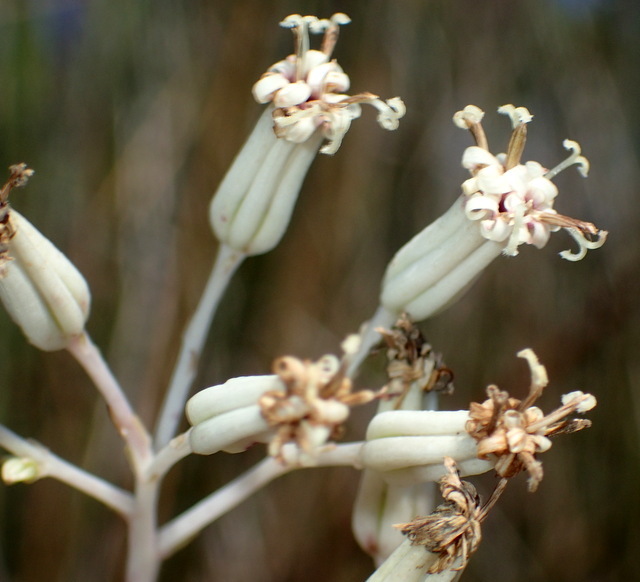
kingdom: Plantae
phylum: Tracheophyta
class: Magnoliopsida
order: Asterales
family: Asteraceae
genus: Arnoglossum
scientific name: Arnoglossum ovatum
